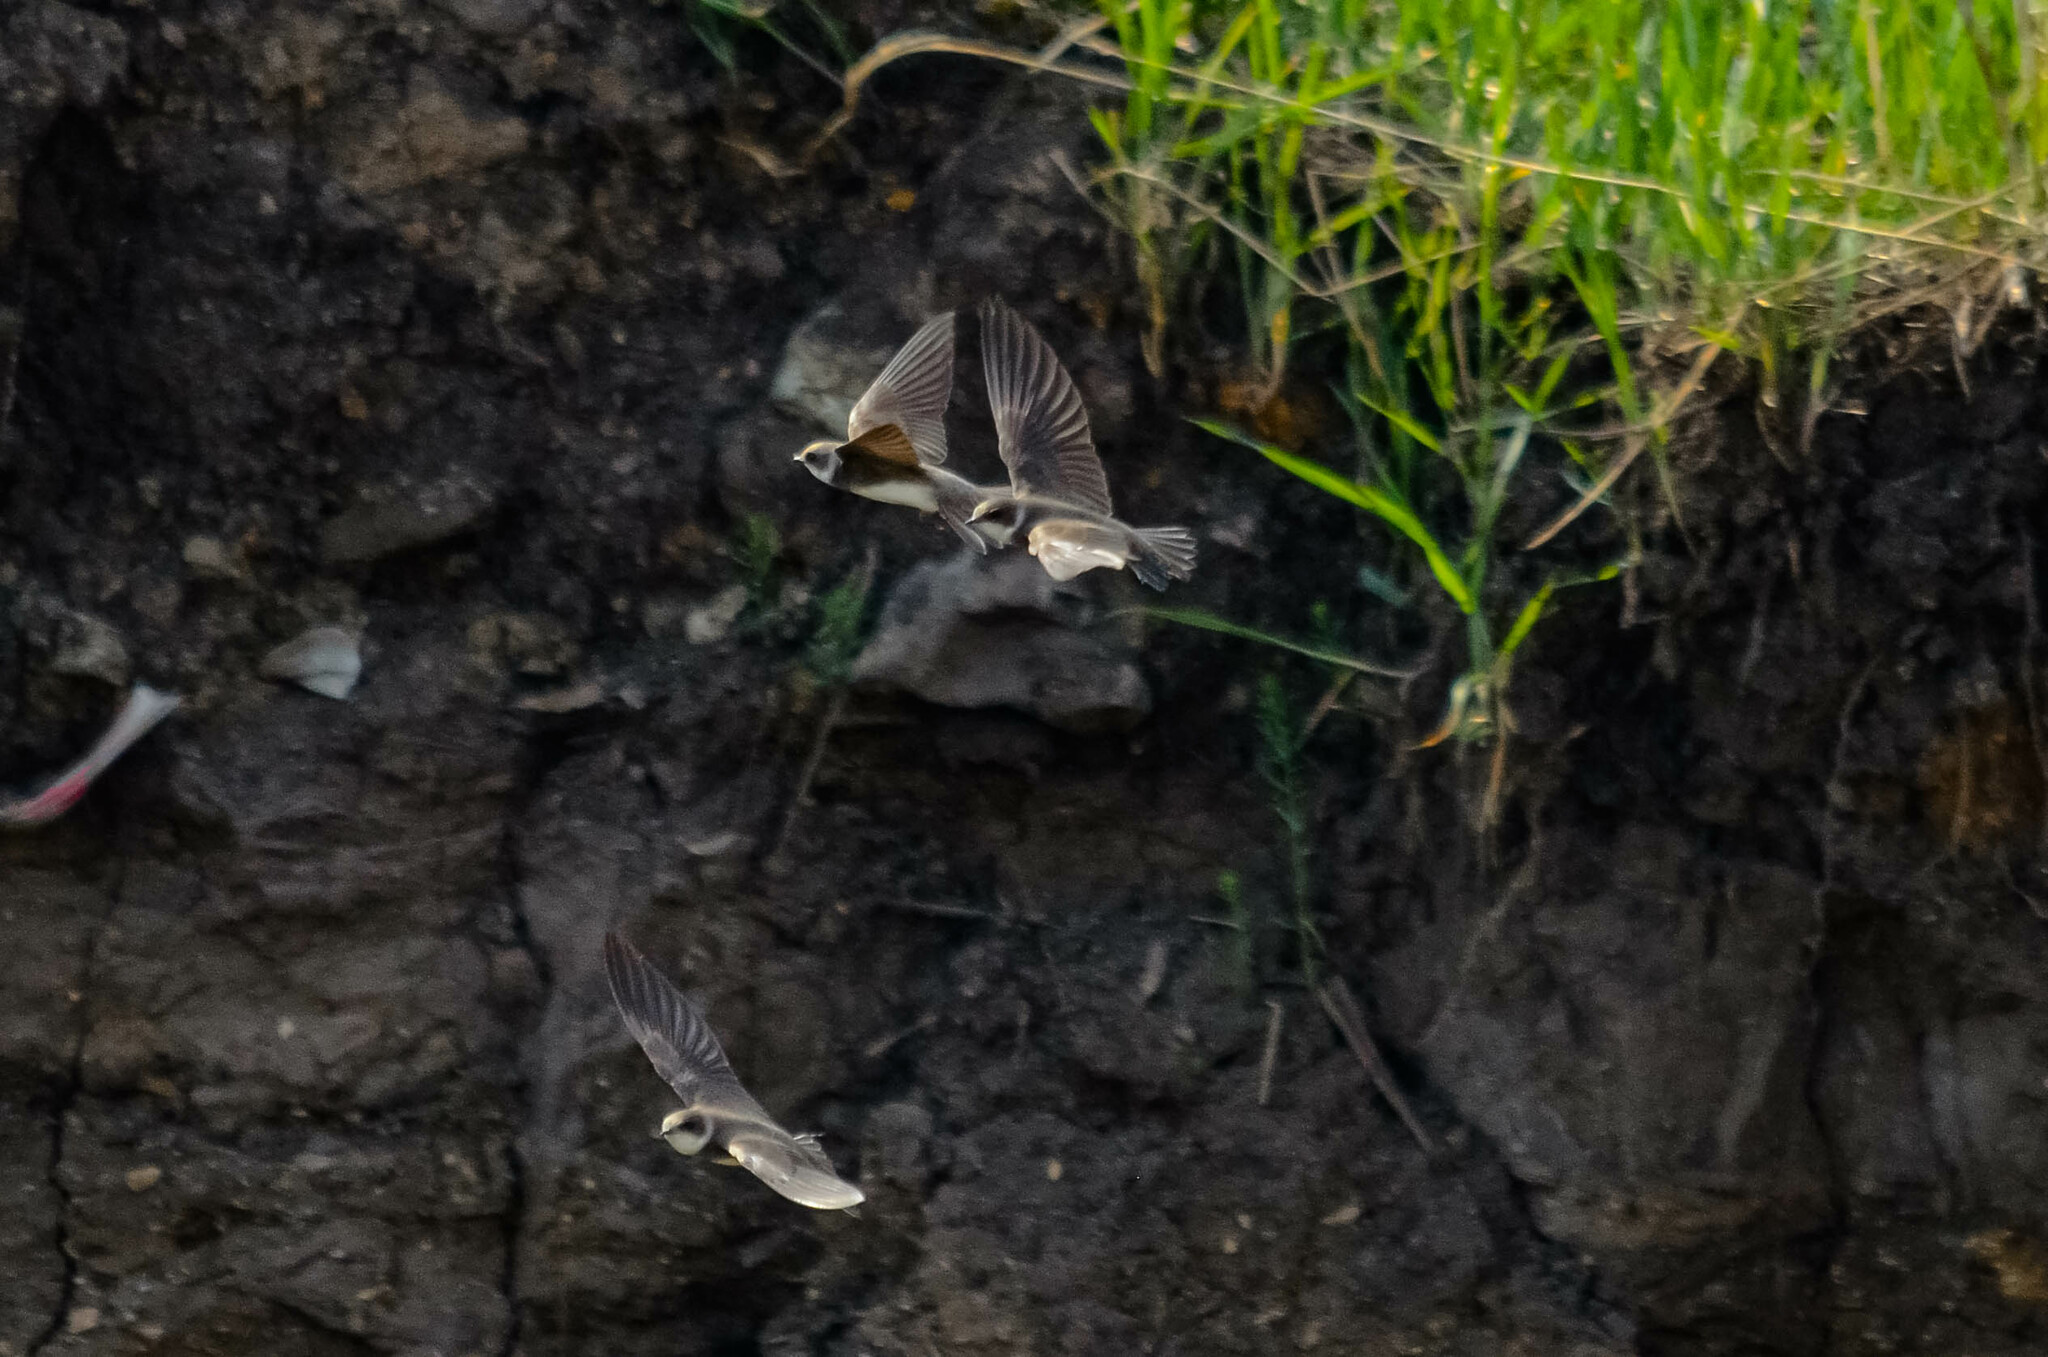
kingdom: Animalia
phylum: Chordata
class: Aves
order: Passeriformes
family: Hirundinidae
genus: Riparia
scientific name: Riparia riparia
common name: Sand martin
